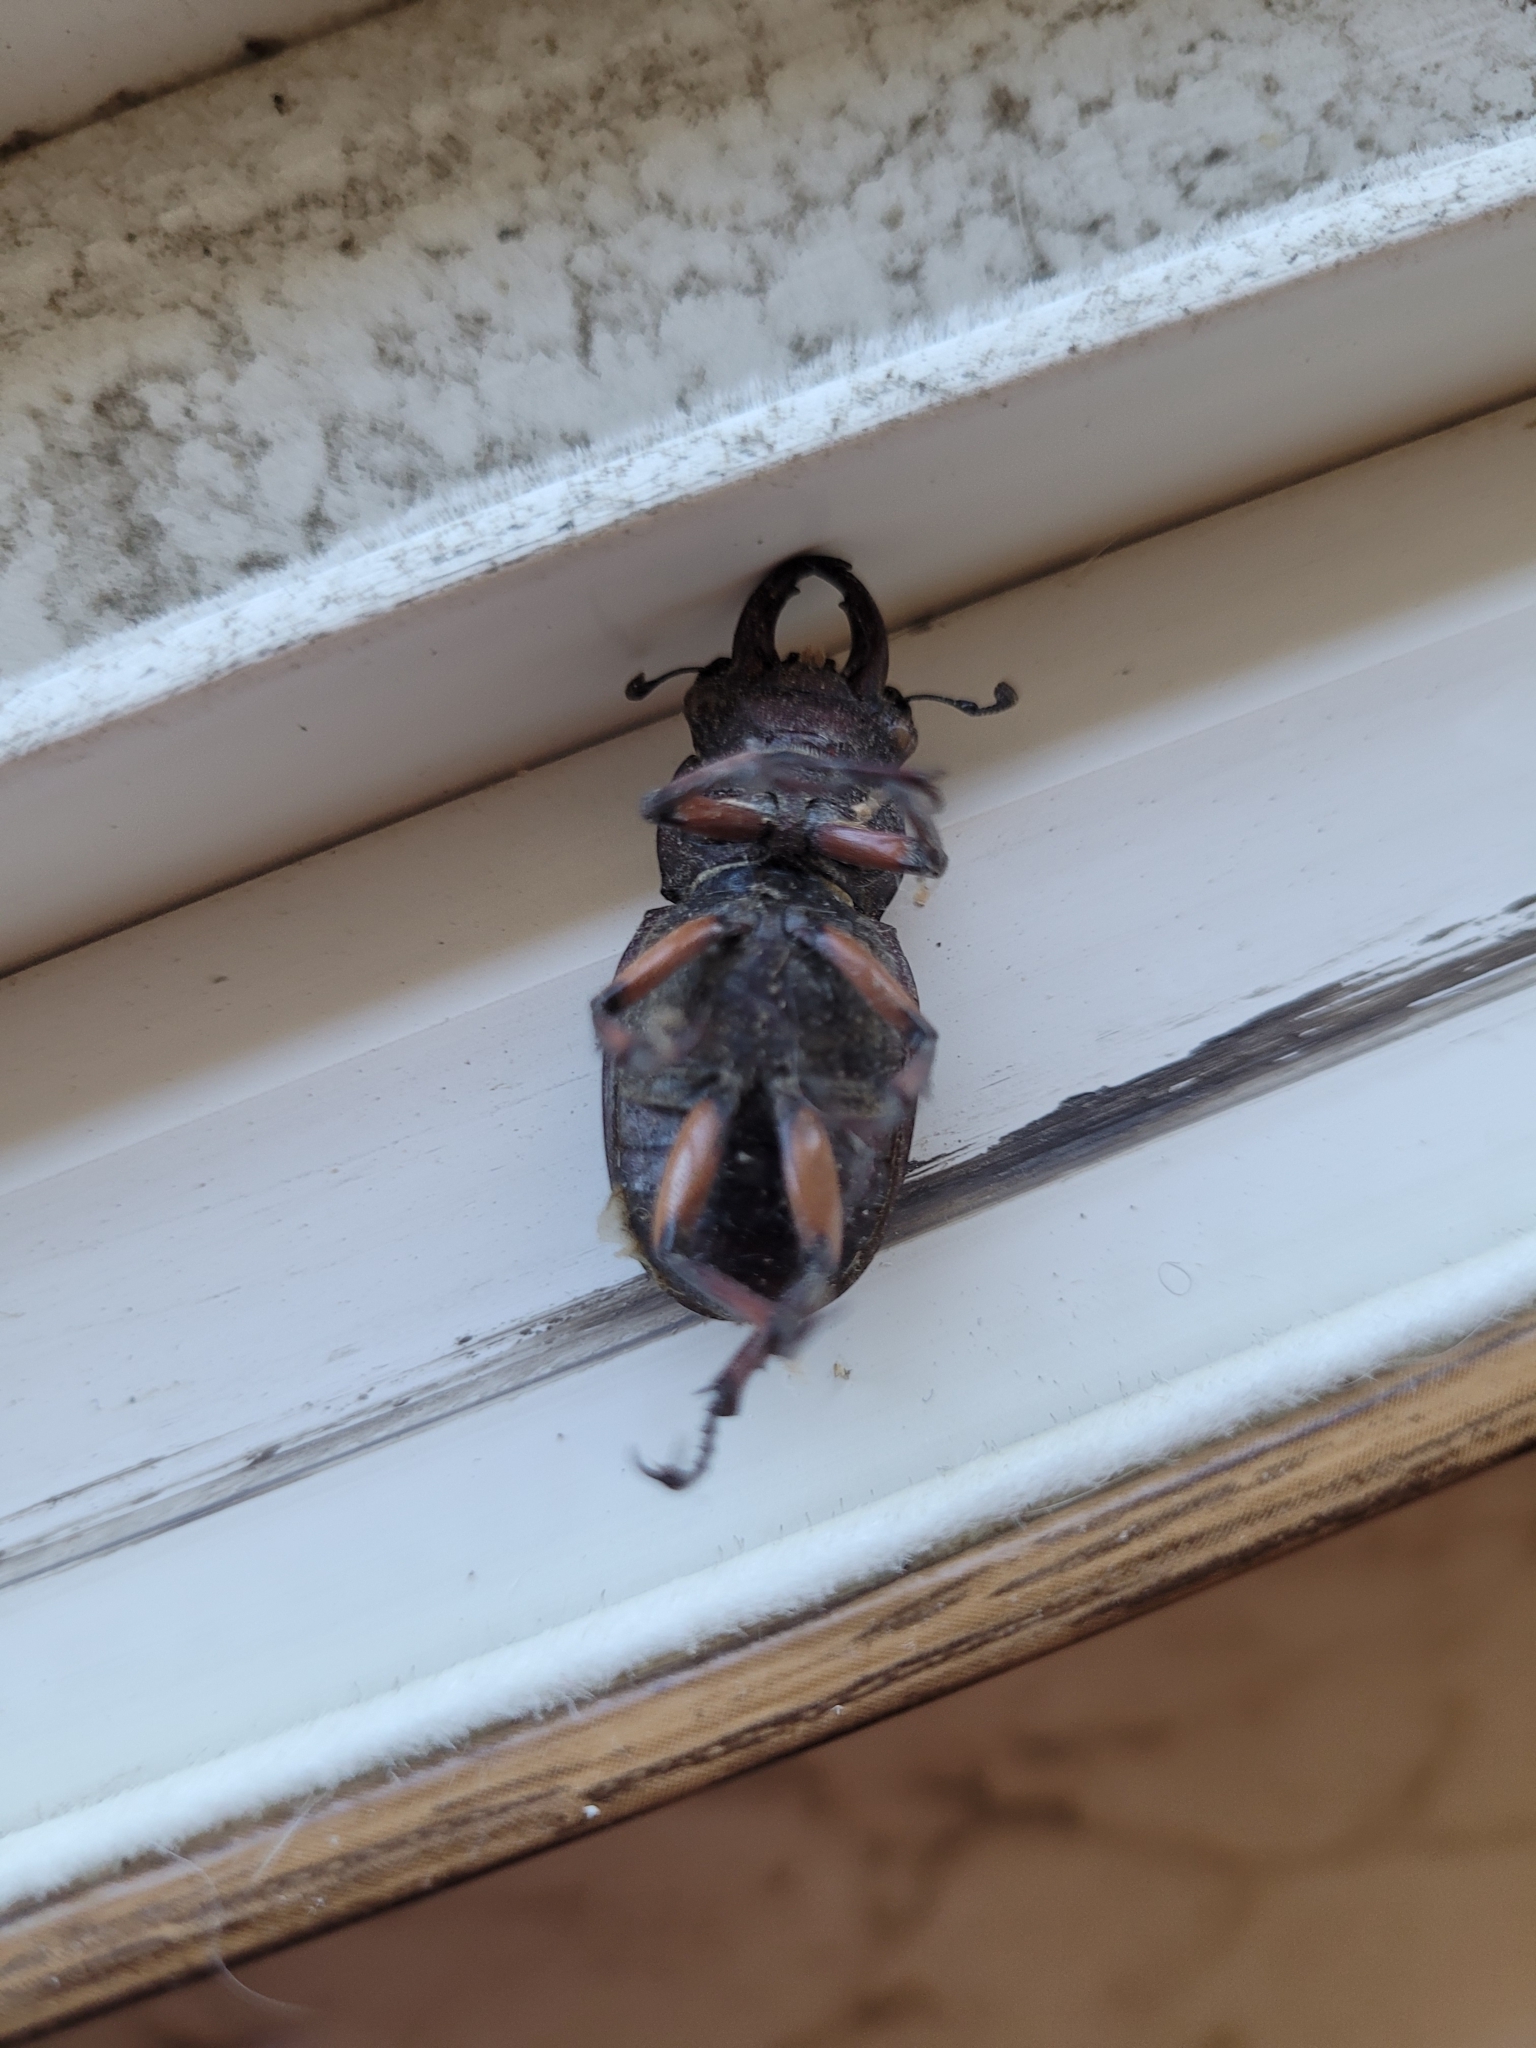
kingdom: Animalia
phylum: Arthropoda
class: Insecta
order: Coleoptera
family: Lucanidae
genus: Lucanus
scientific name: Lucanus capreolus
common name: Stag beetle
